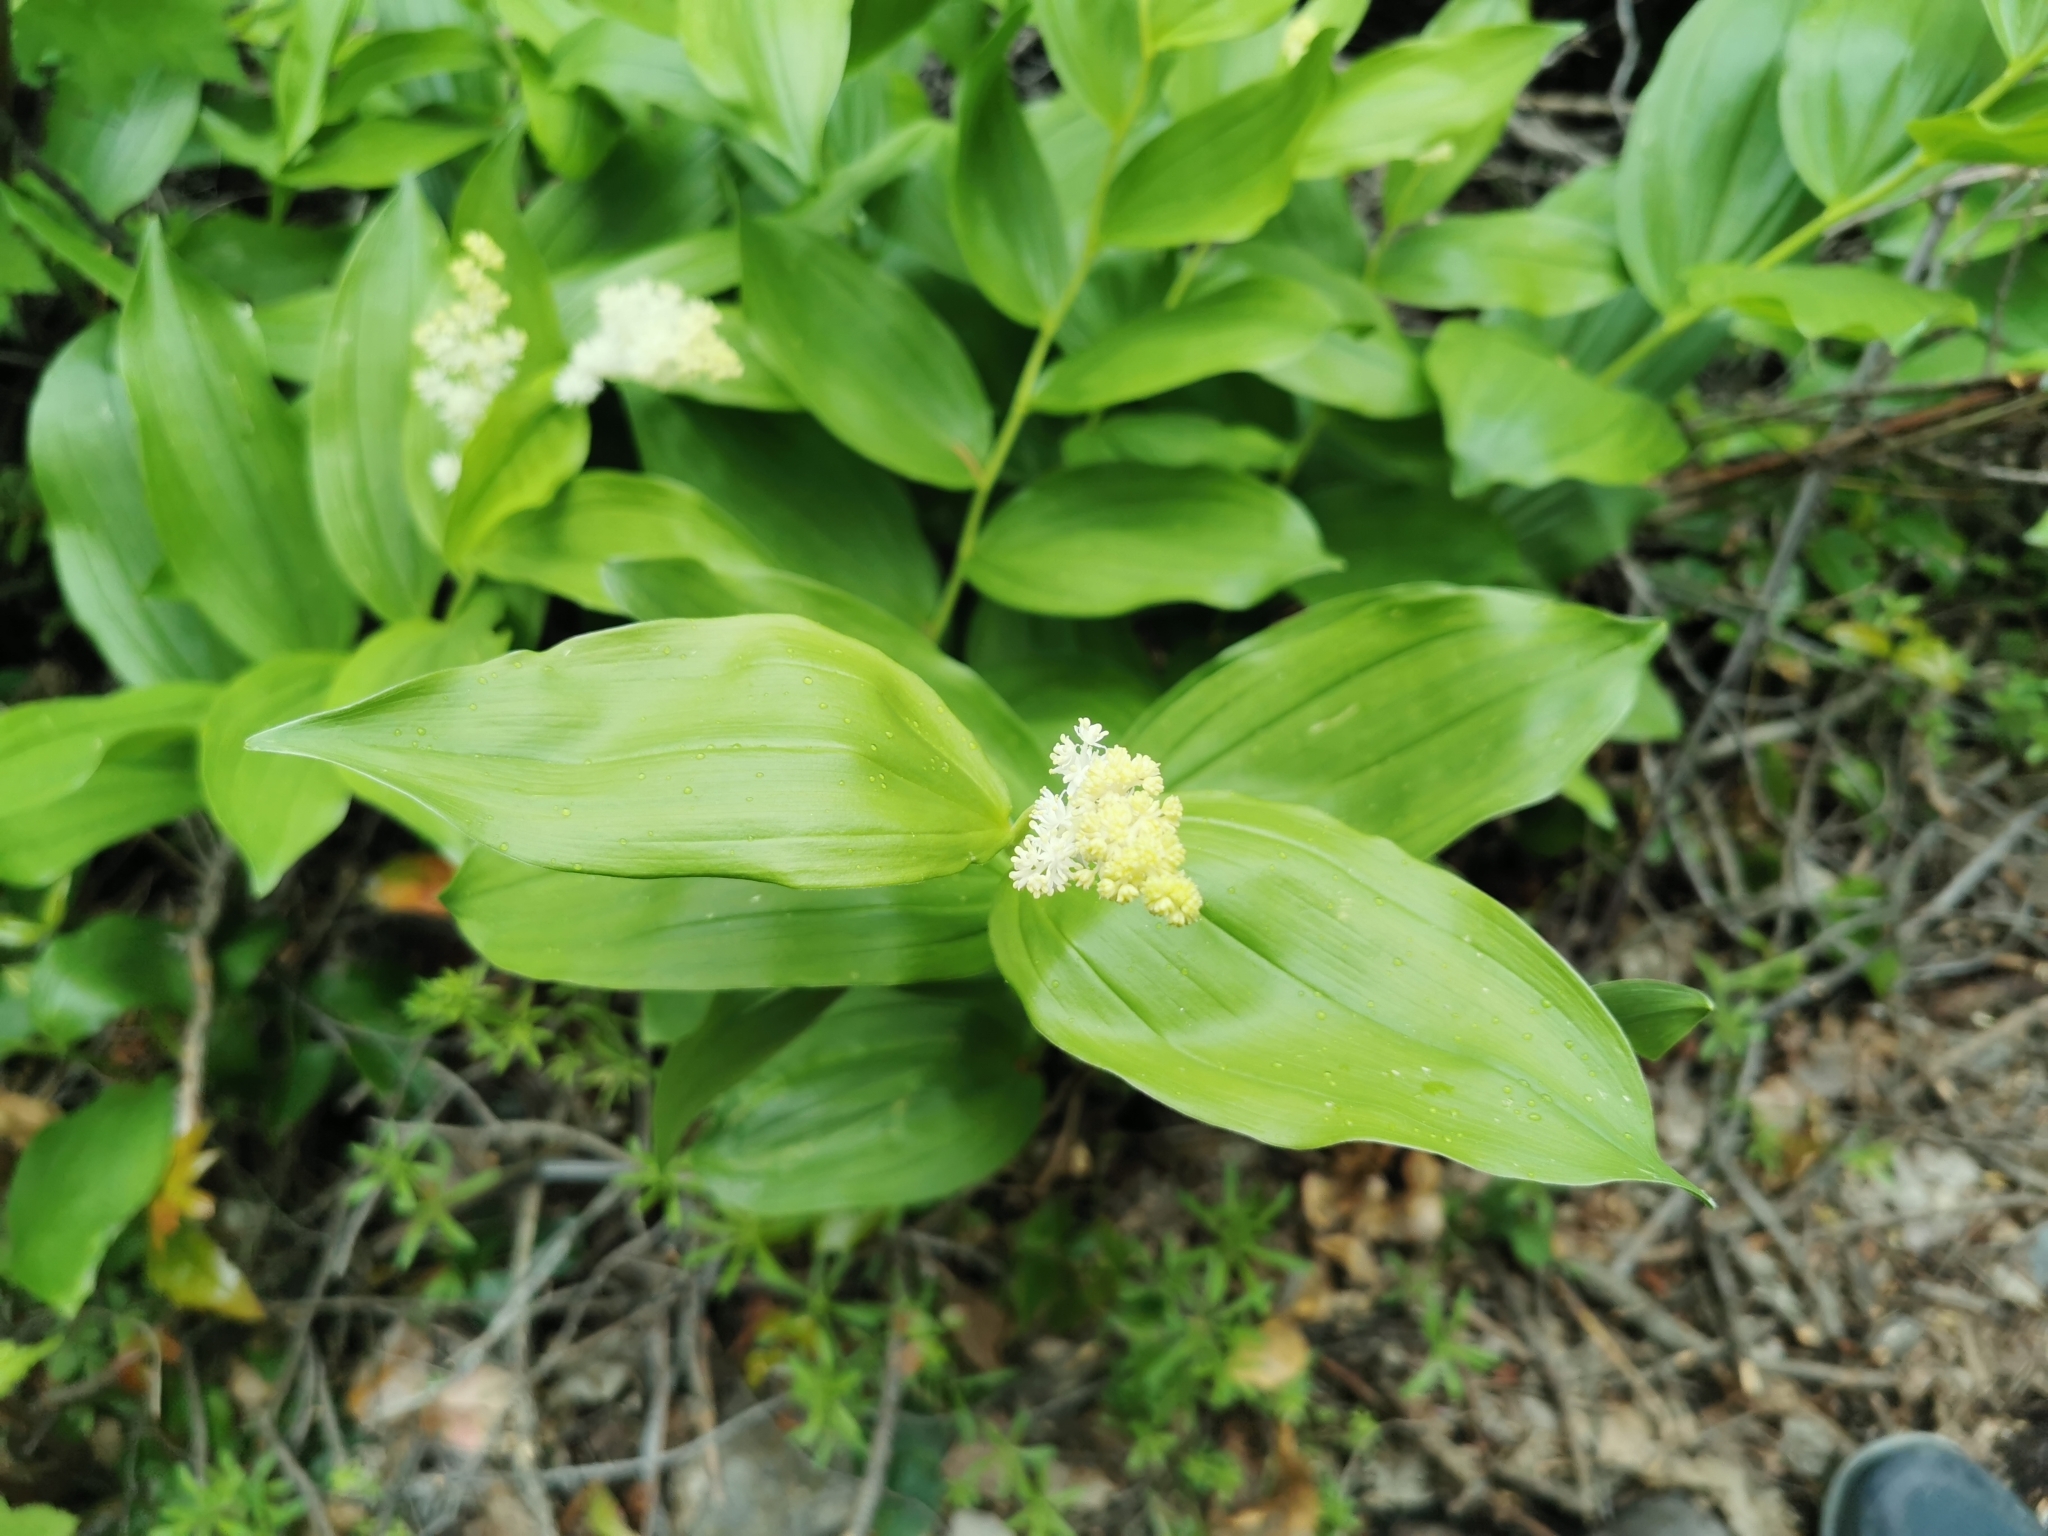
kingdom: Plantae
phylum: Tracheophyta
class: Liliopsida
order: Asparagales
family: Asparagaceae
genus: Maianthemum
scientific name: Maianthemum racemosum
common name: False spikenard
